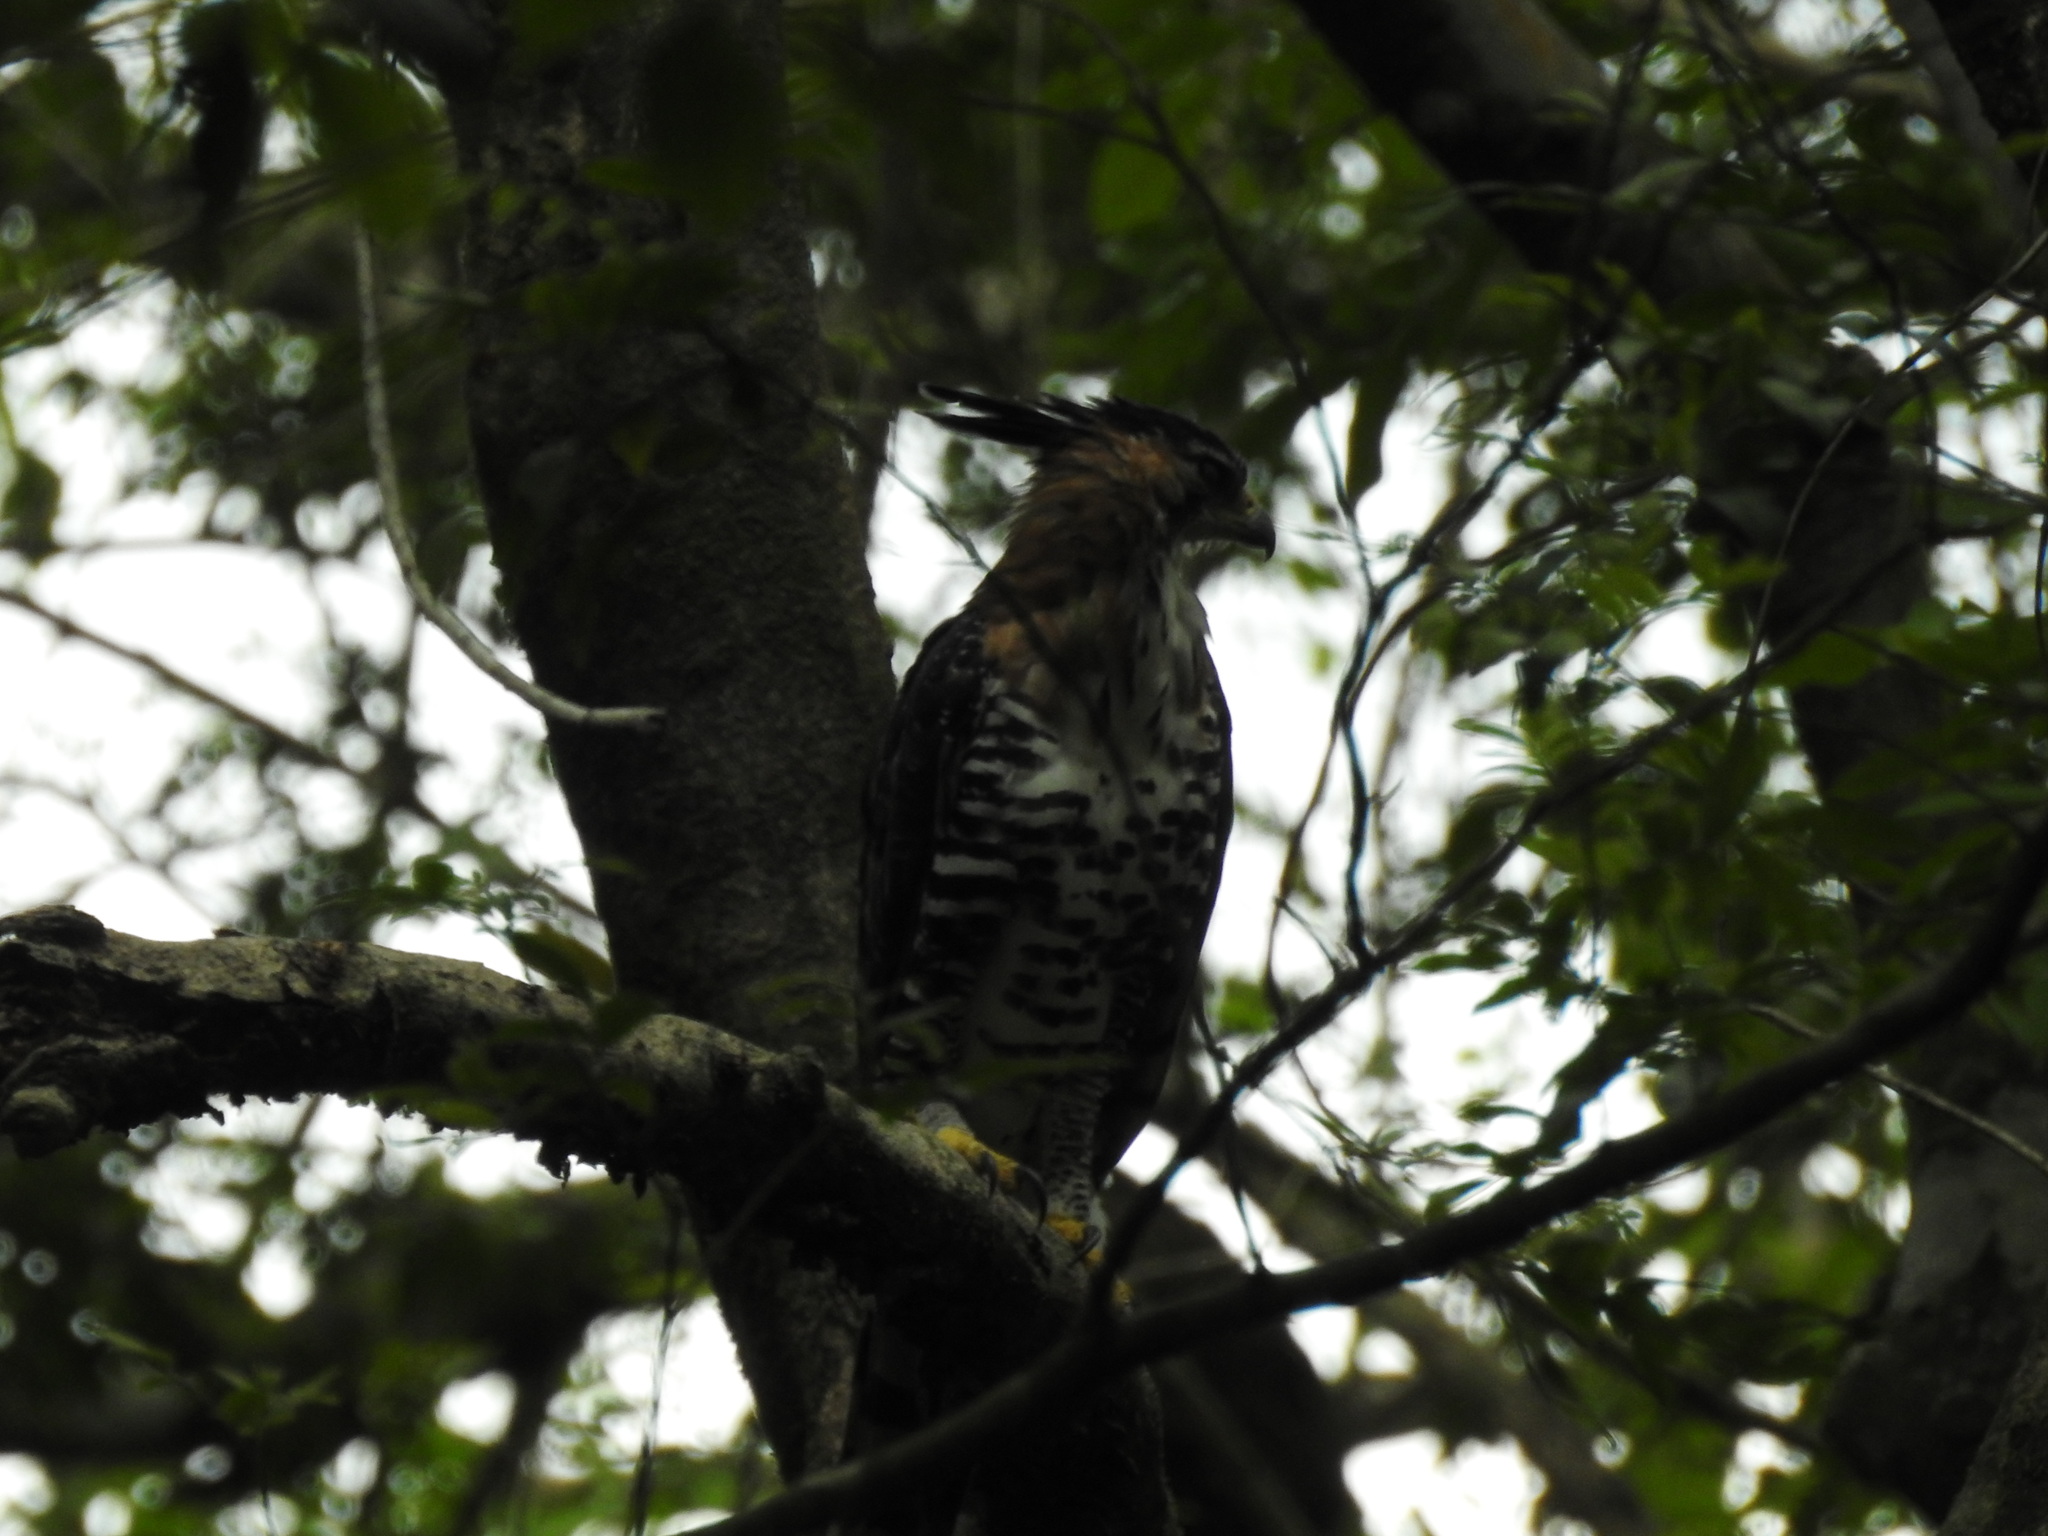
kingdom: Animalia
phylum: Chordata
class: Aves
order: Accipitriformes
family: Accipitridae
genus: Spizaetus
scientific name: Spizaetus ornatus
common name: Ornate hawk-eagle
